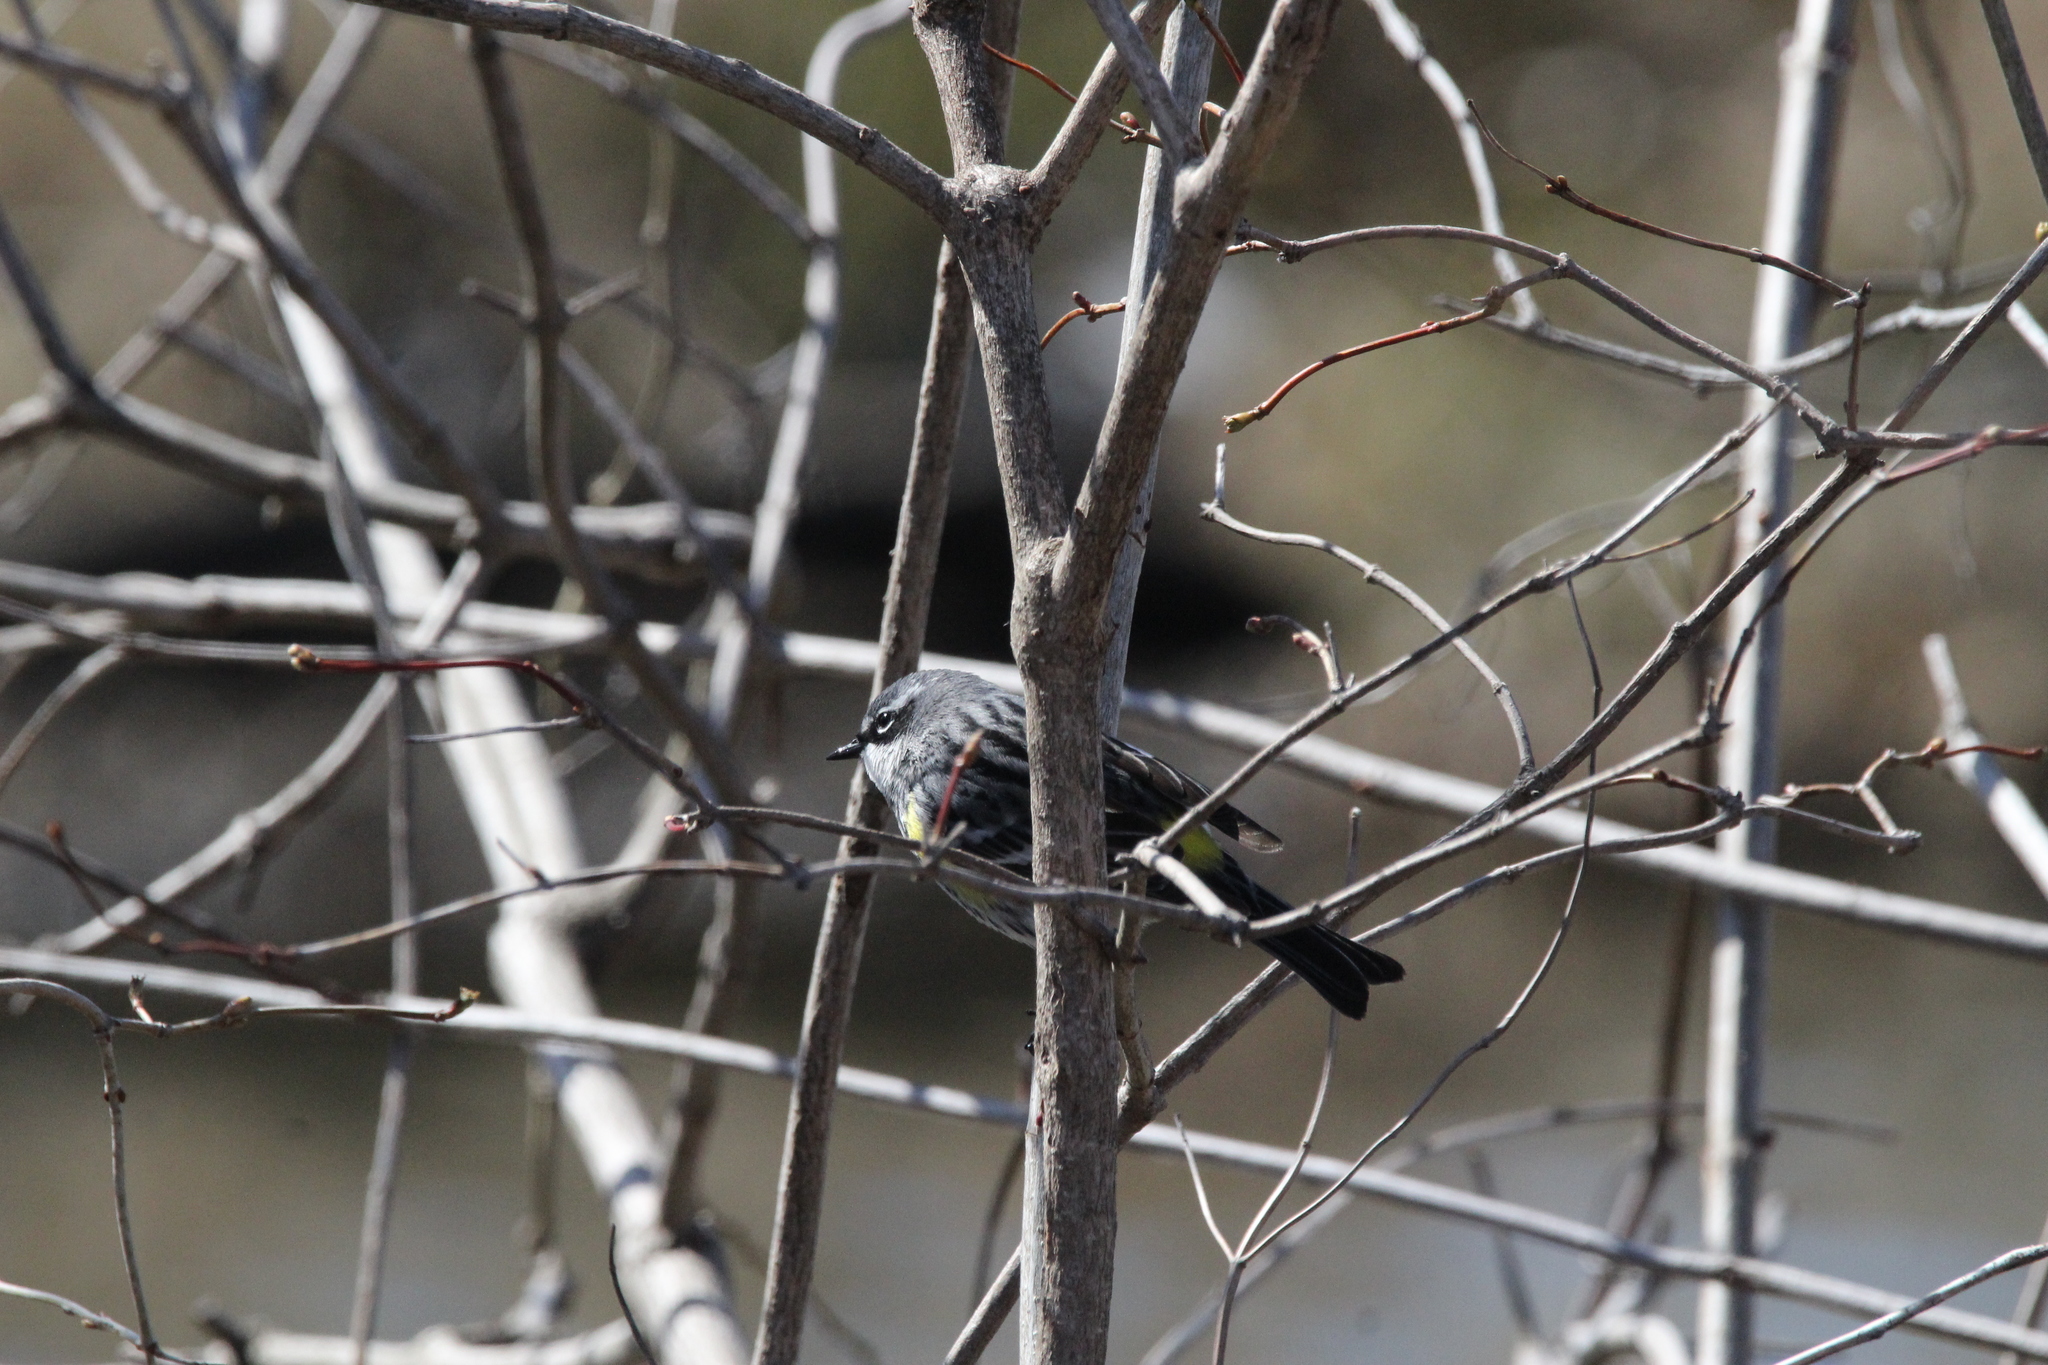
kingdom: Animalia
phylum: Chordata
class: Aves
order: Passeriformes
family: Parulidae
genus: Setophaga
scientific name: Setophaga coronata
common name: Myrtle warbler
